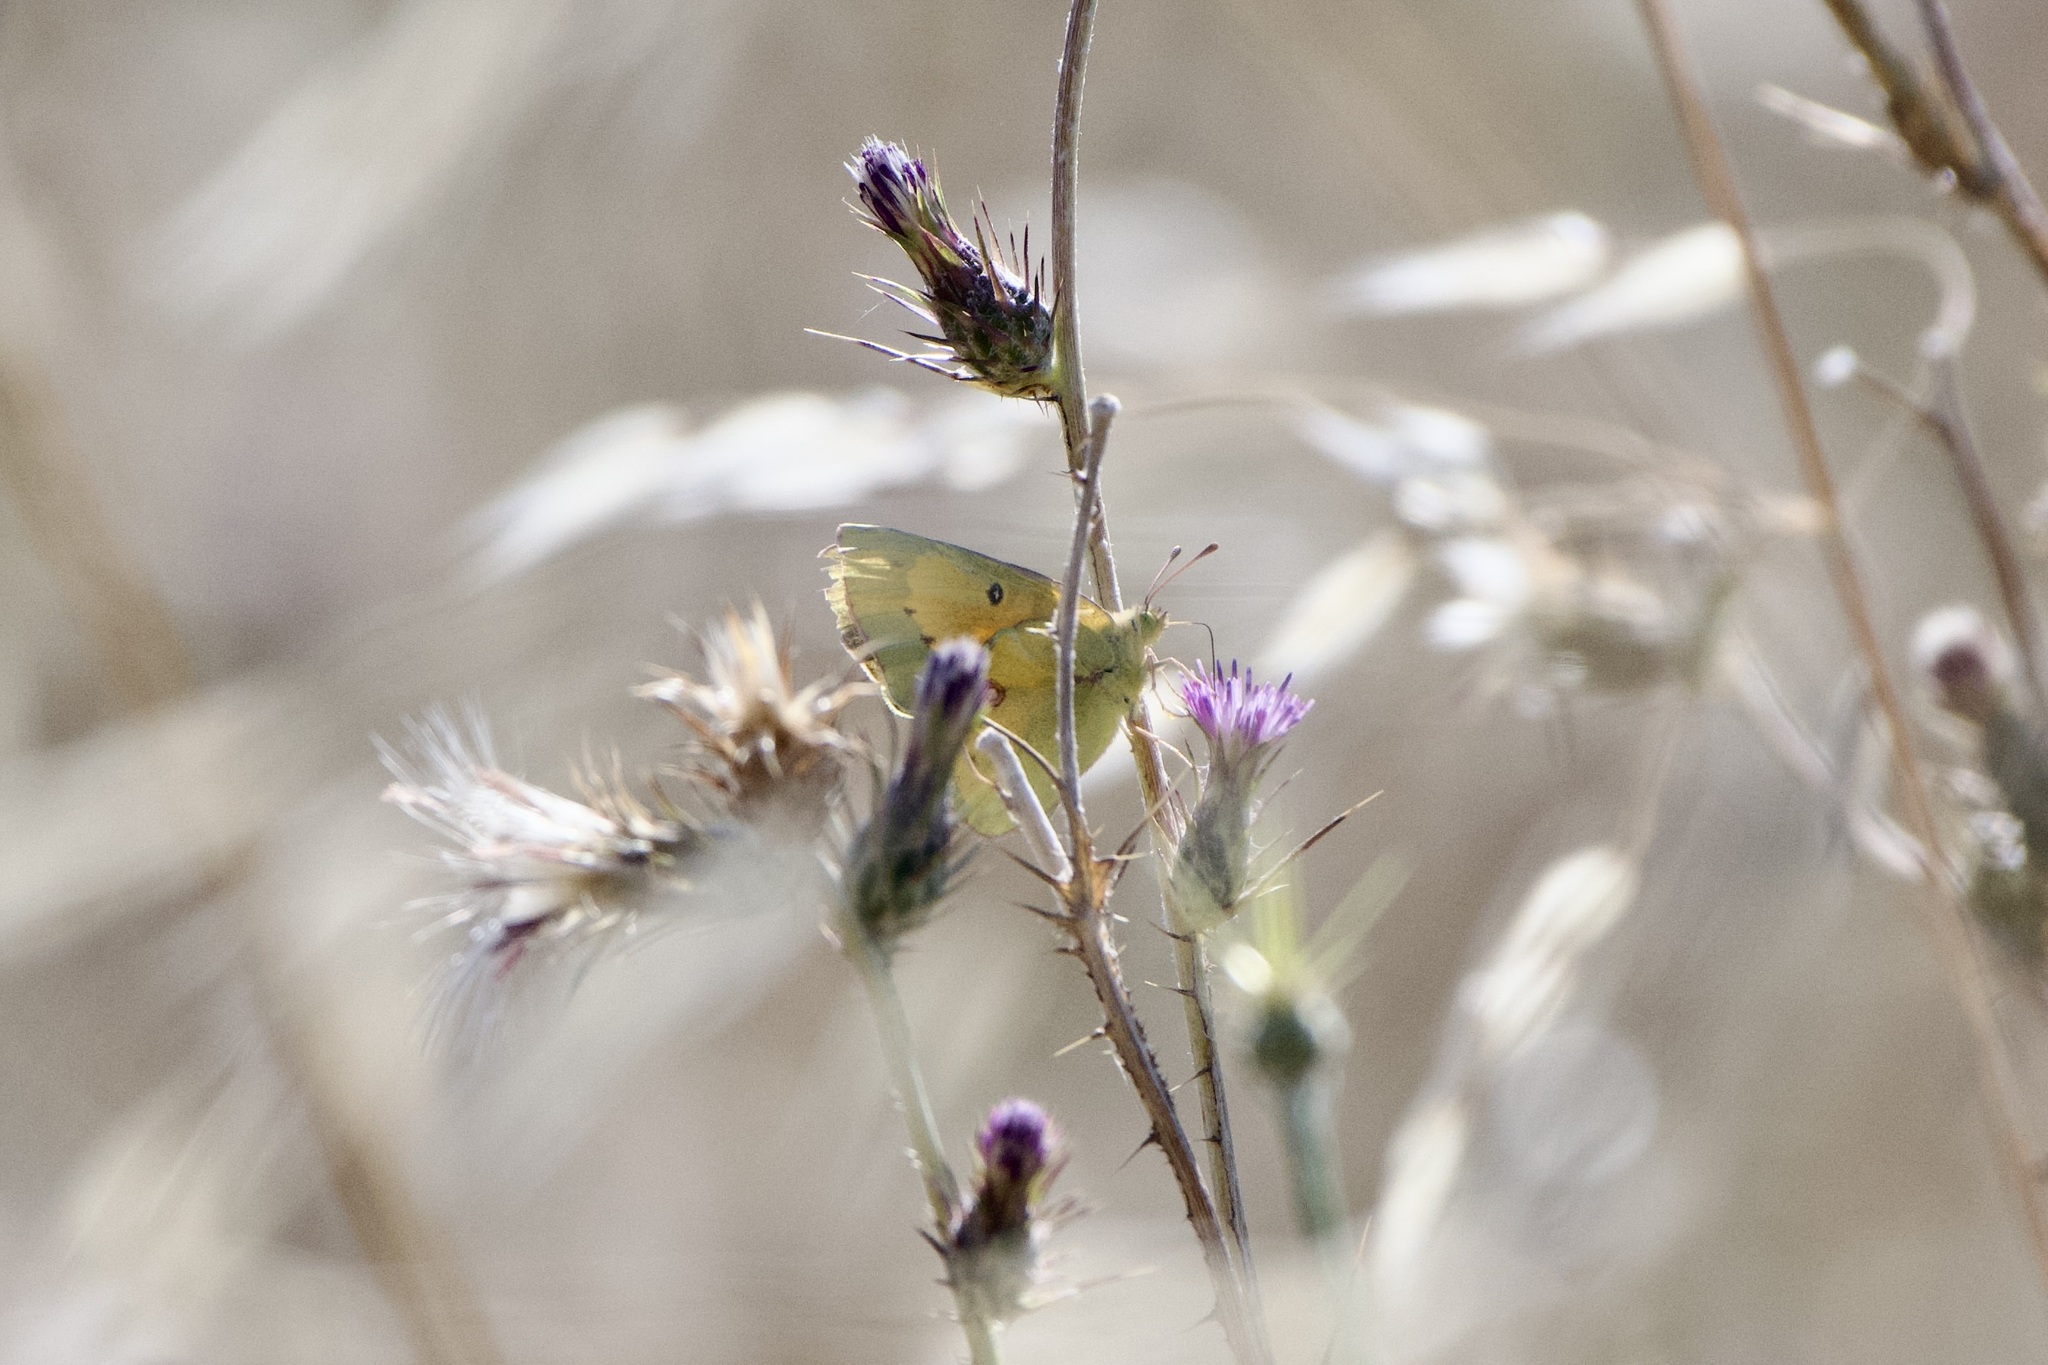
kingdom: Animalia
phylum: Arthropoda
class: Insecta
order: Lepidoptera
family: Pieridae
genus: Colias
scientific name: Colias eurytheme
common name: Alfalfa butterfly
